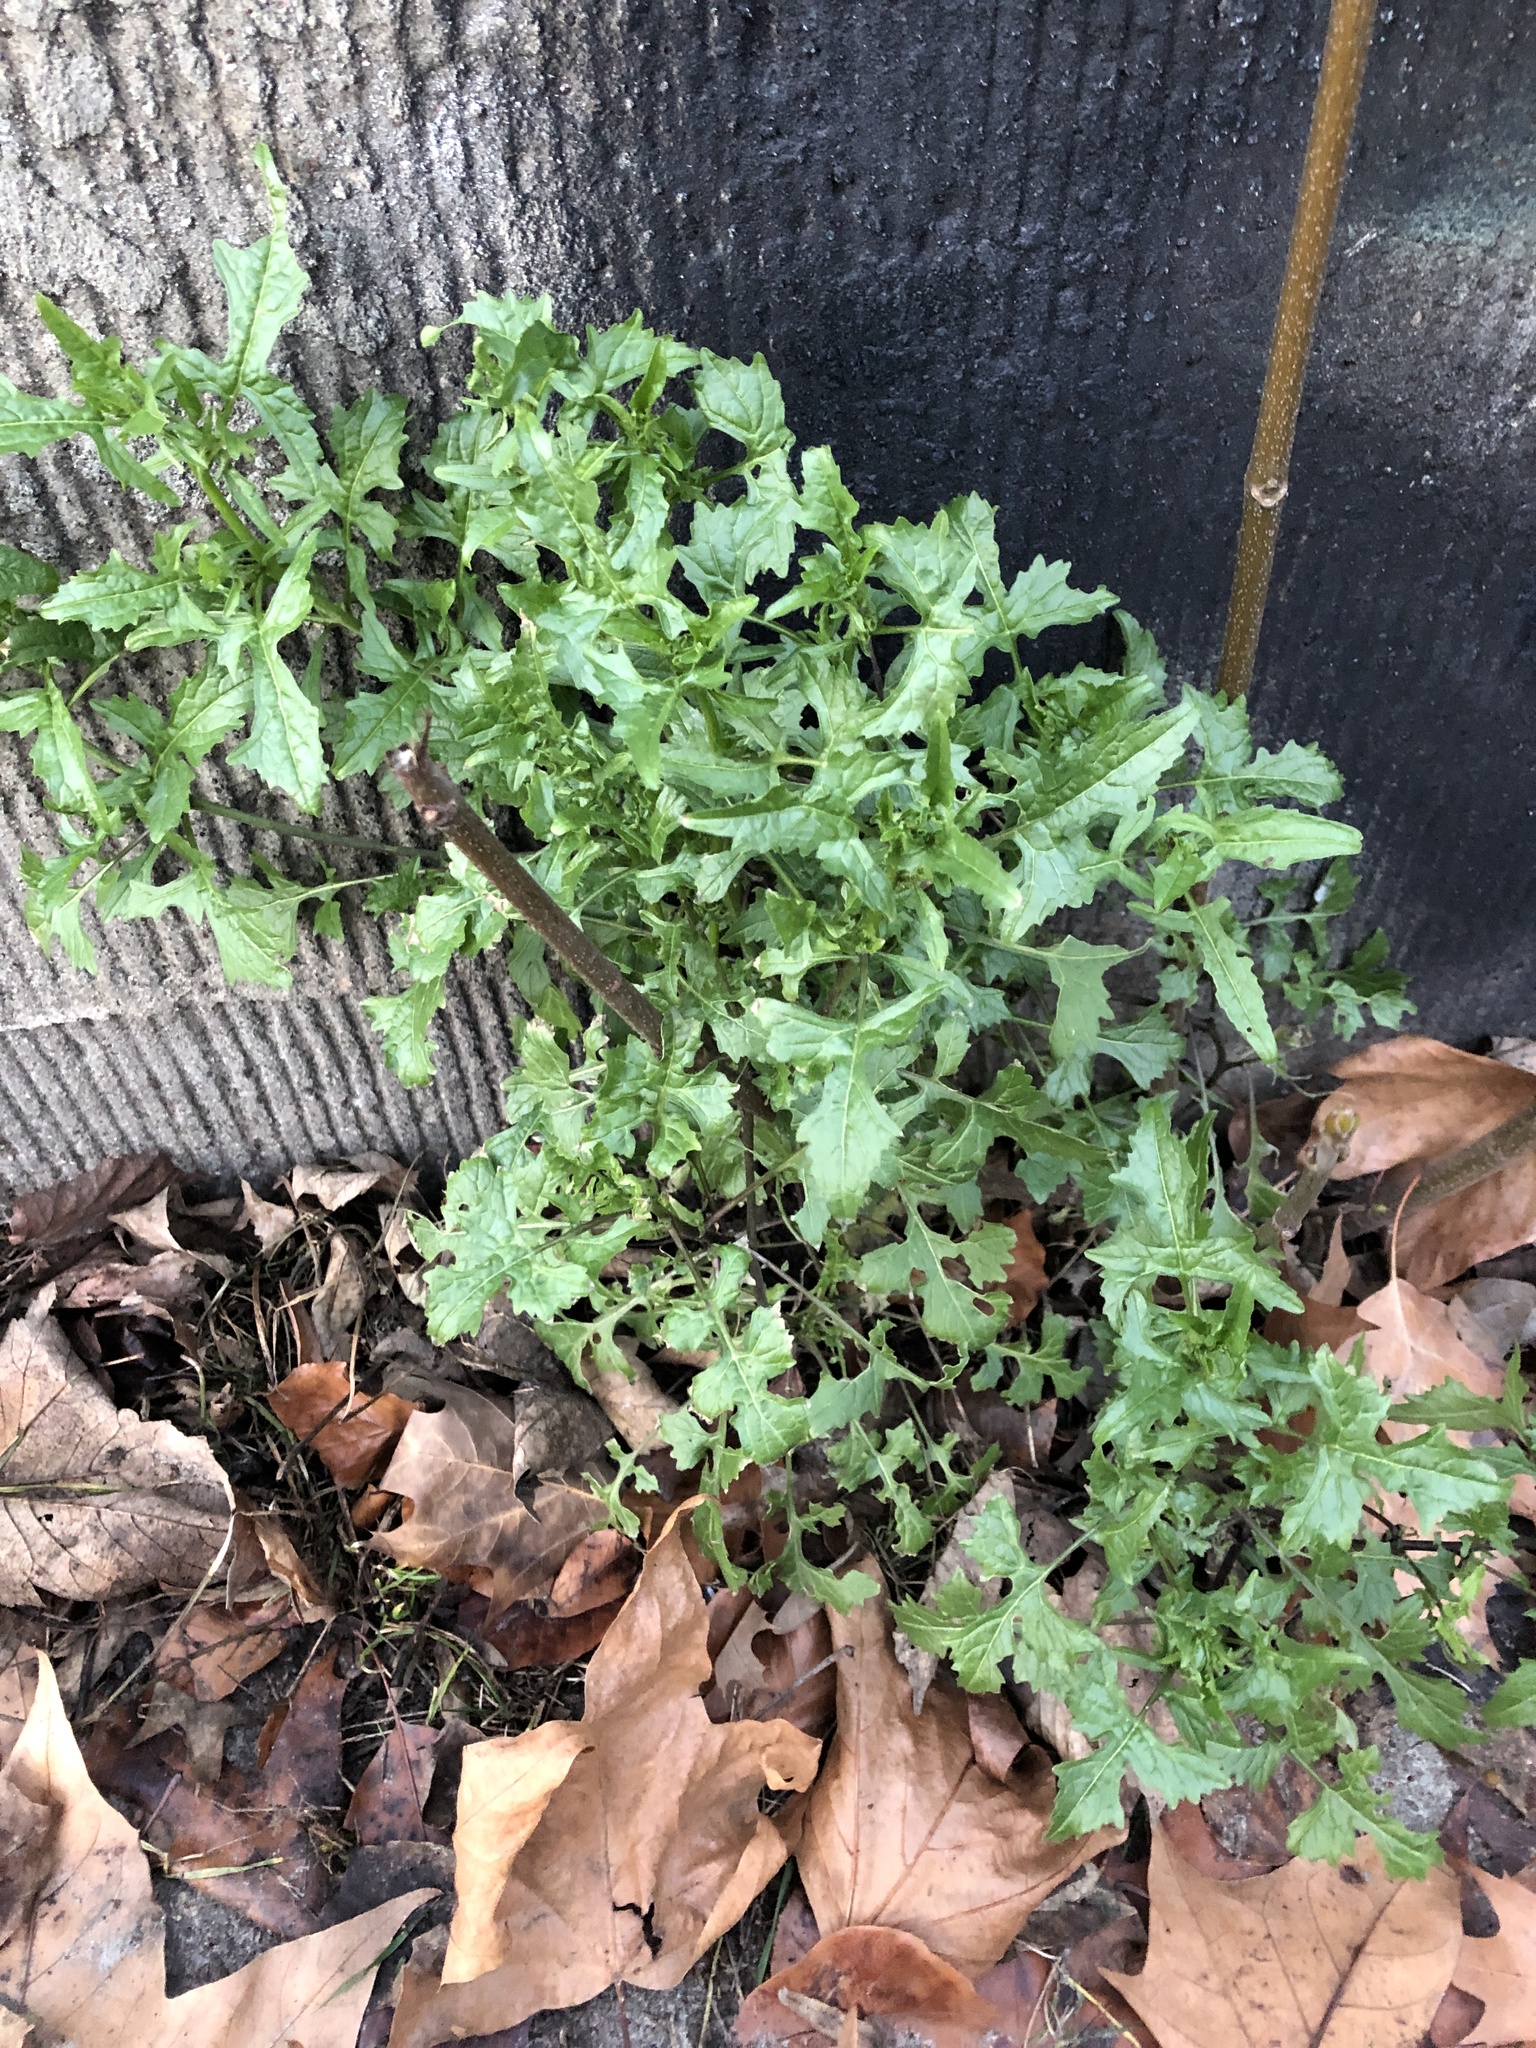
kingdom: Plantae
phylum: Tracheophyta
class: Magnoliopsida
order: Brassicales
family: Brassicaceae
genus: Sisymbrium
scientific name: Sisymbrium officinale
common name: Hedge mustard
